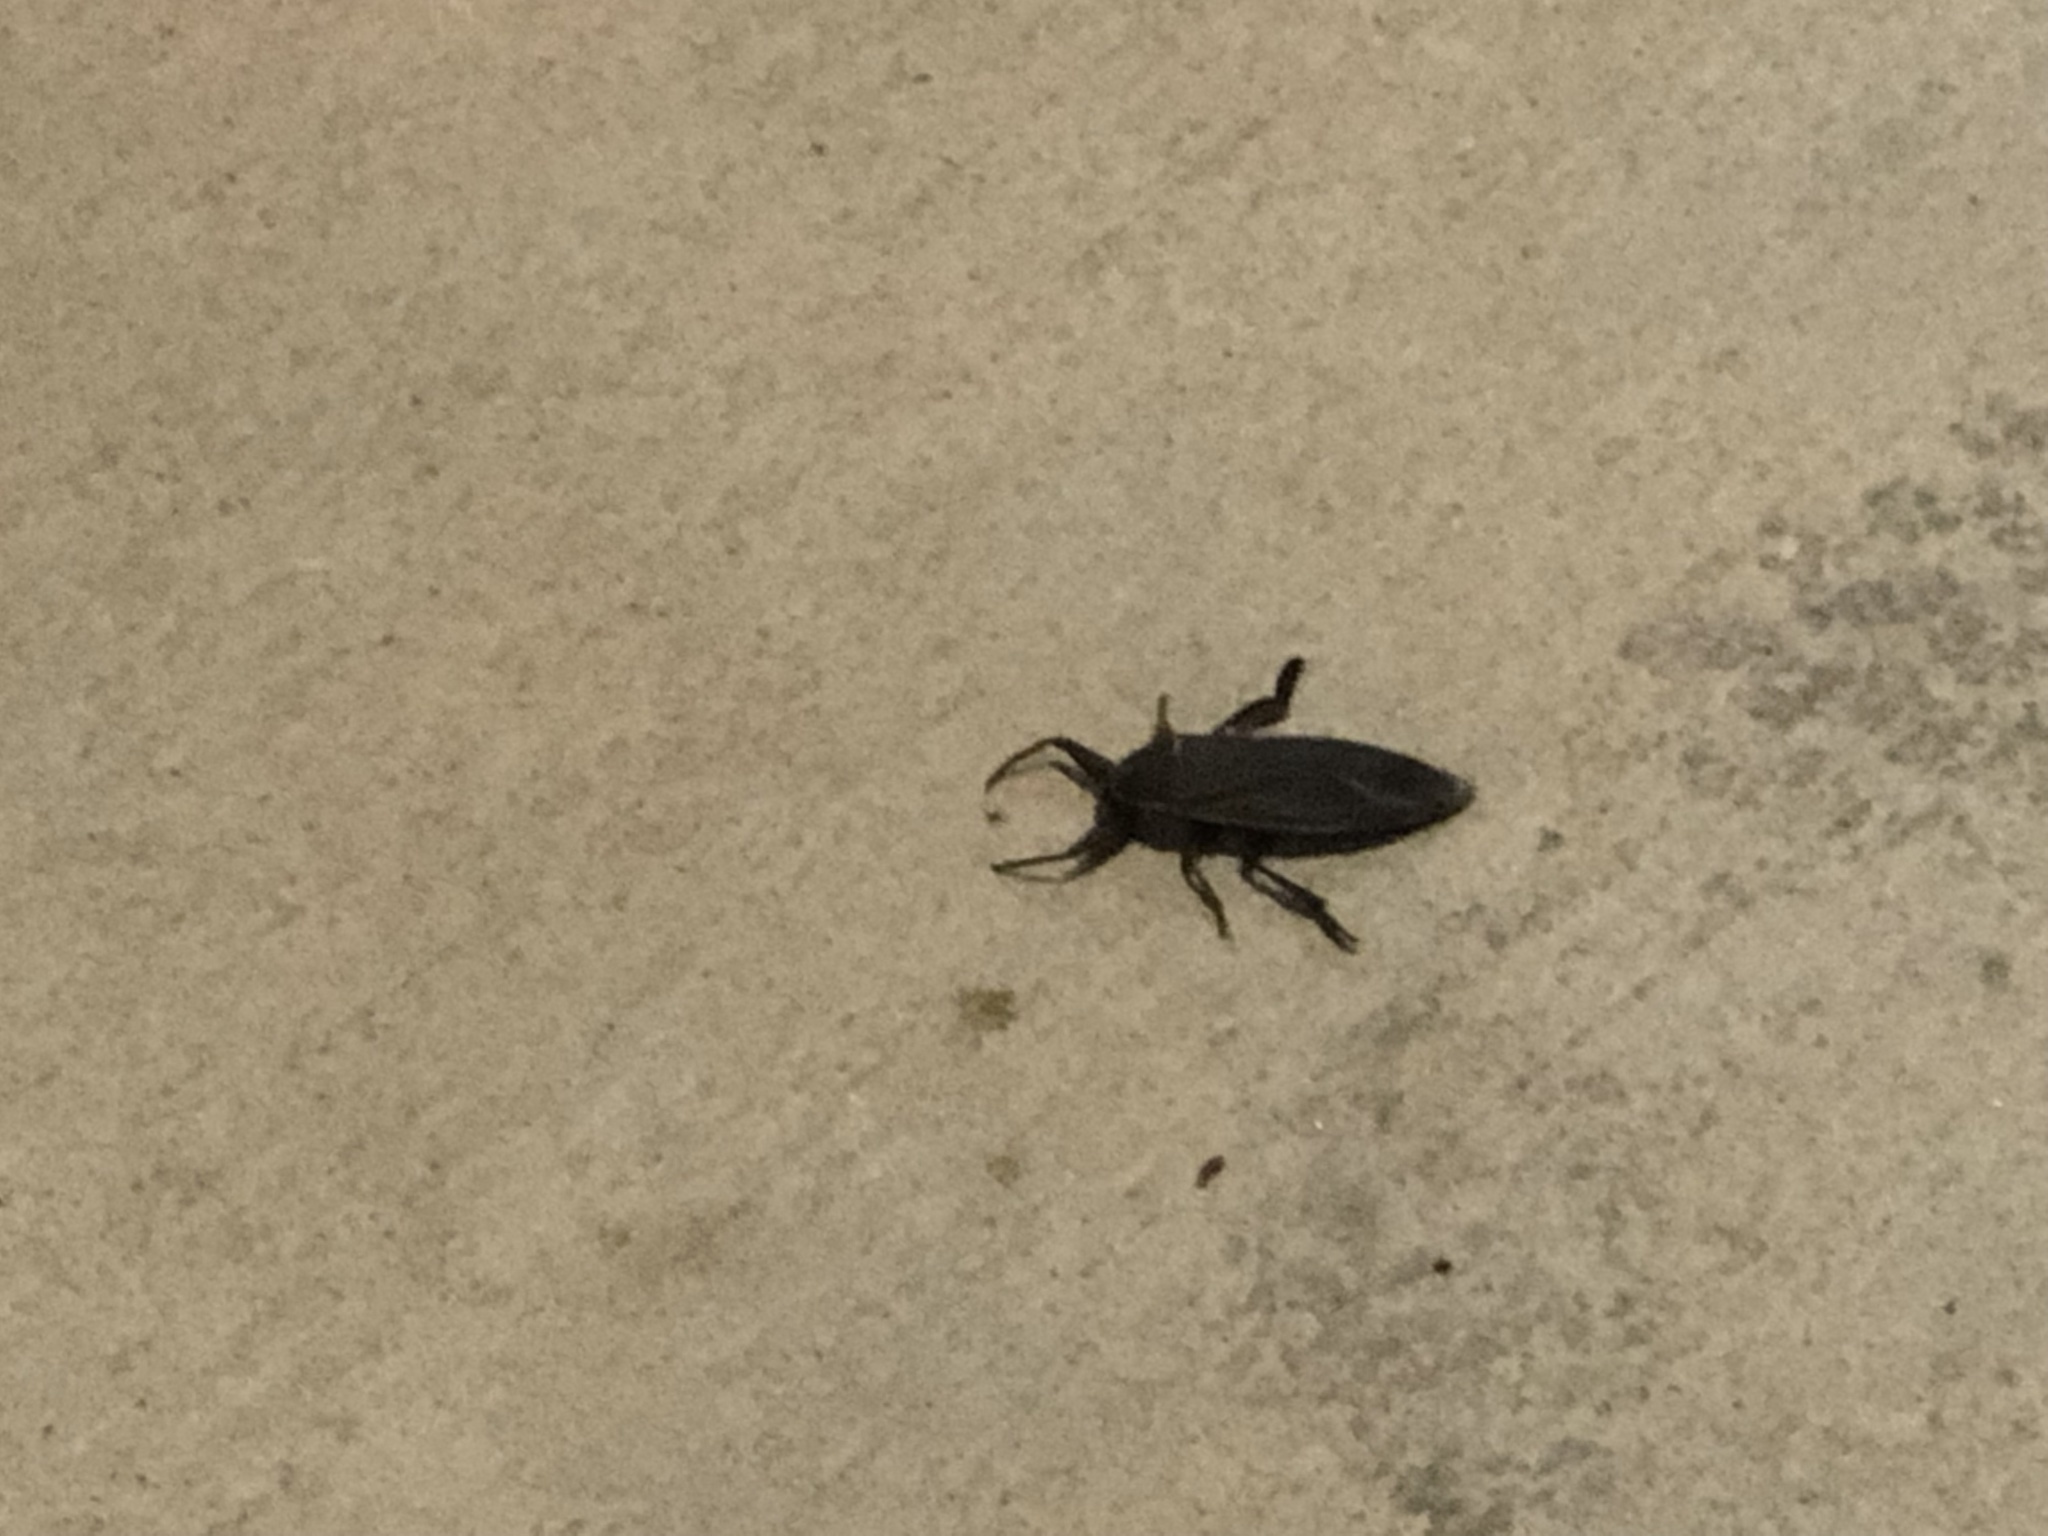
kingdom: Animalia
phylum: Arthropoda
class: Insecta
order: Hemiptera
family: Belostomatidae
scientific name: Belostomatidae
